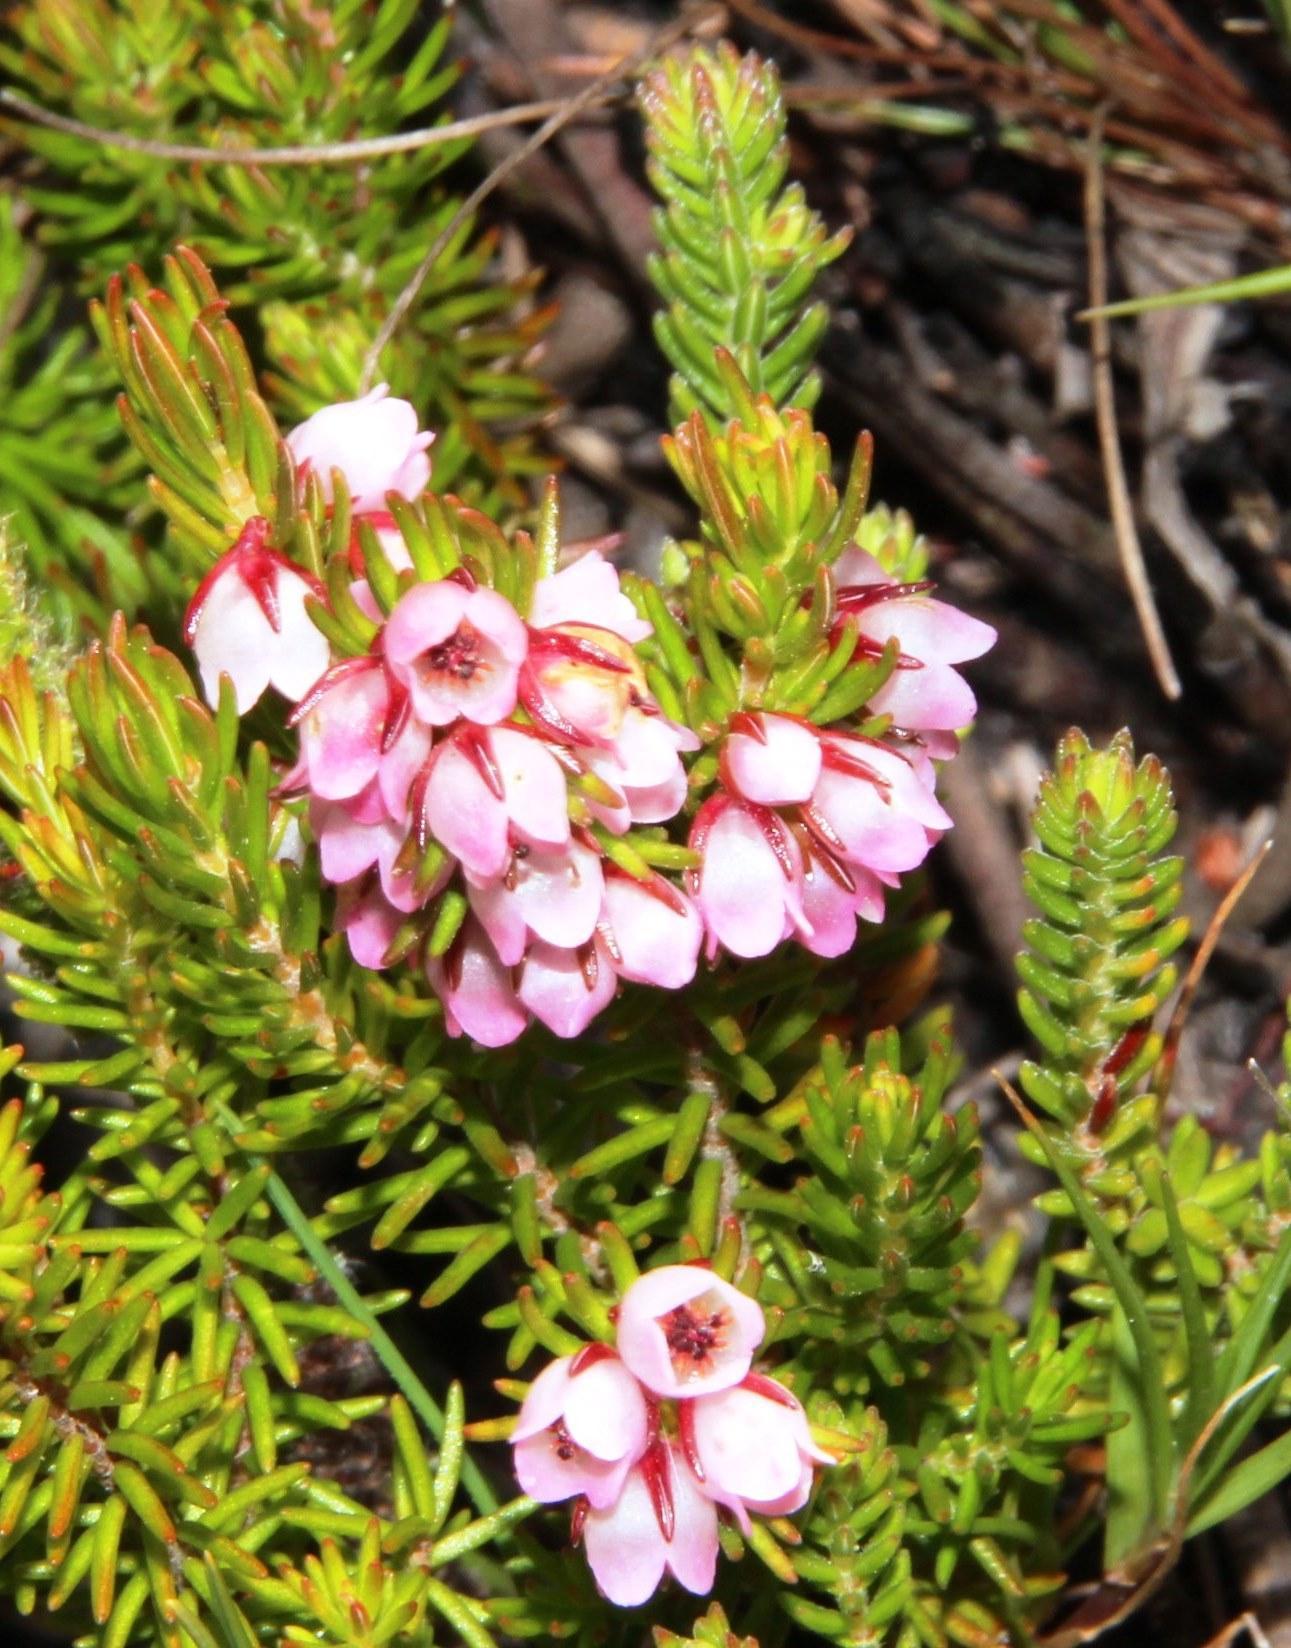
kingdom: Plantae
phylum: Tracheophyta
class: Magnoliopsida
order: Ericales
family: Ericaceae
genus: Erica
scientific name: Erica autumnalis
